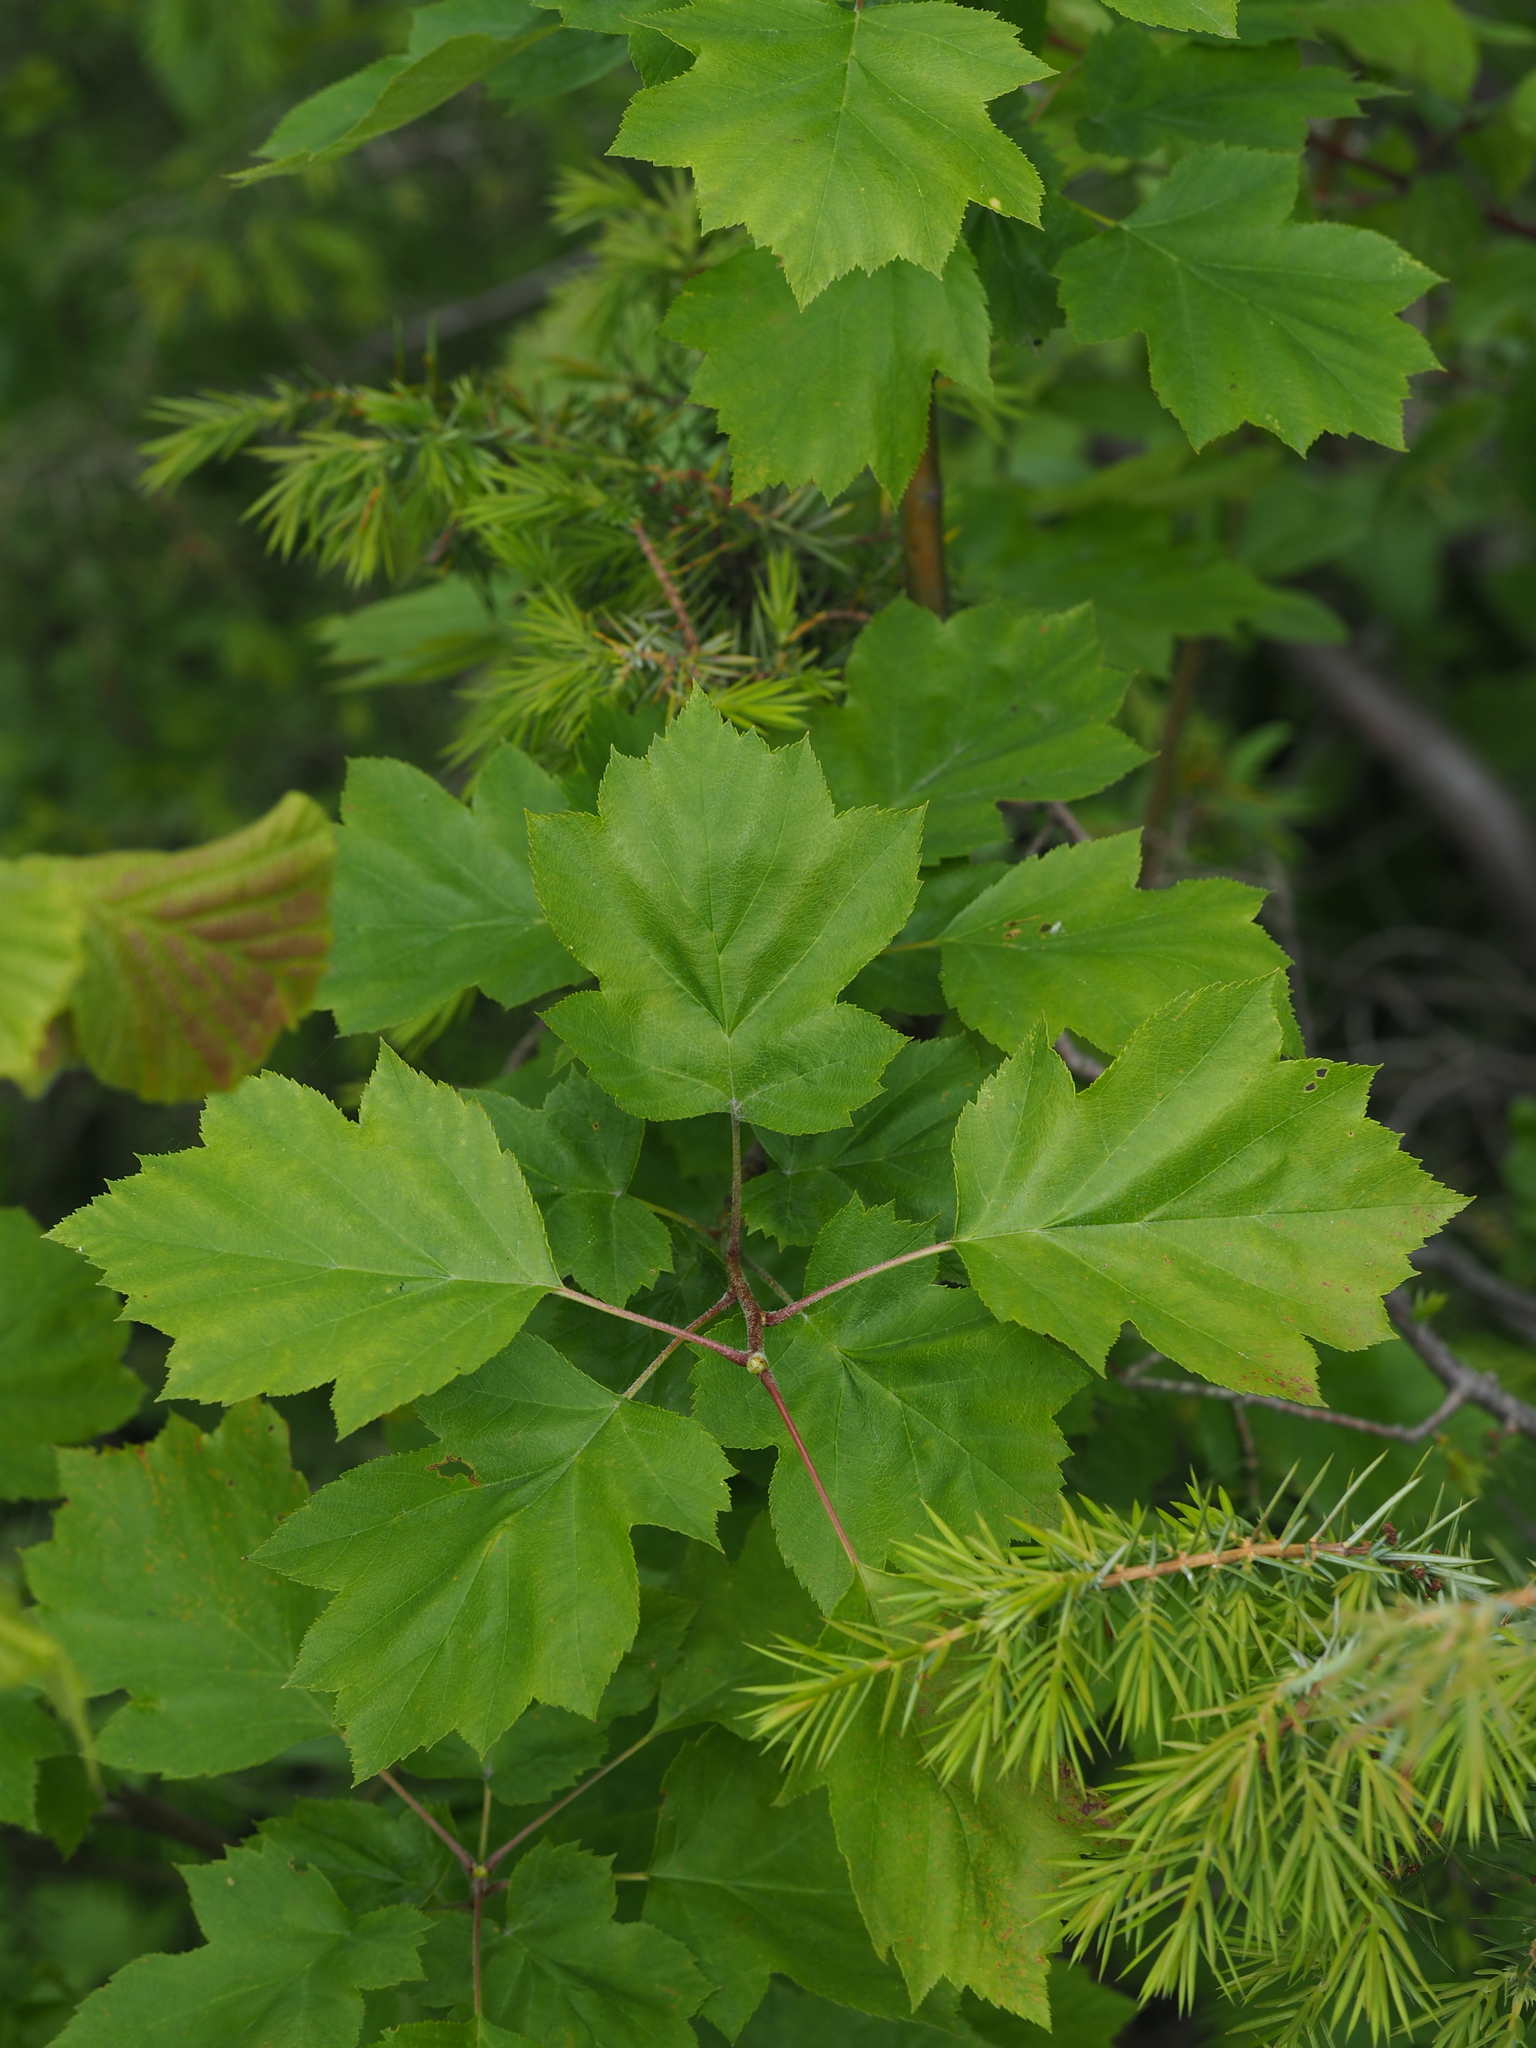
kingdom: Plantae
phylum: Tracheophyta
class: Magnoliopsida
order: Rosales
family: Rosaceae
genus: Torminalis
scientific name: Torminalis glaberrima
